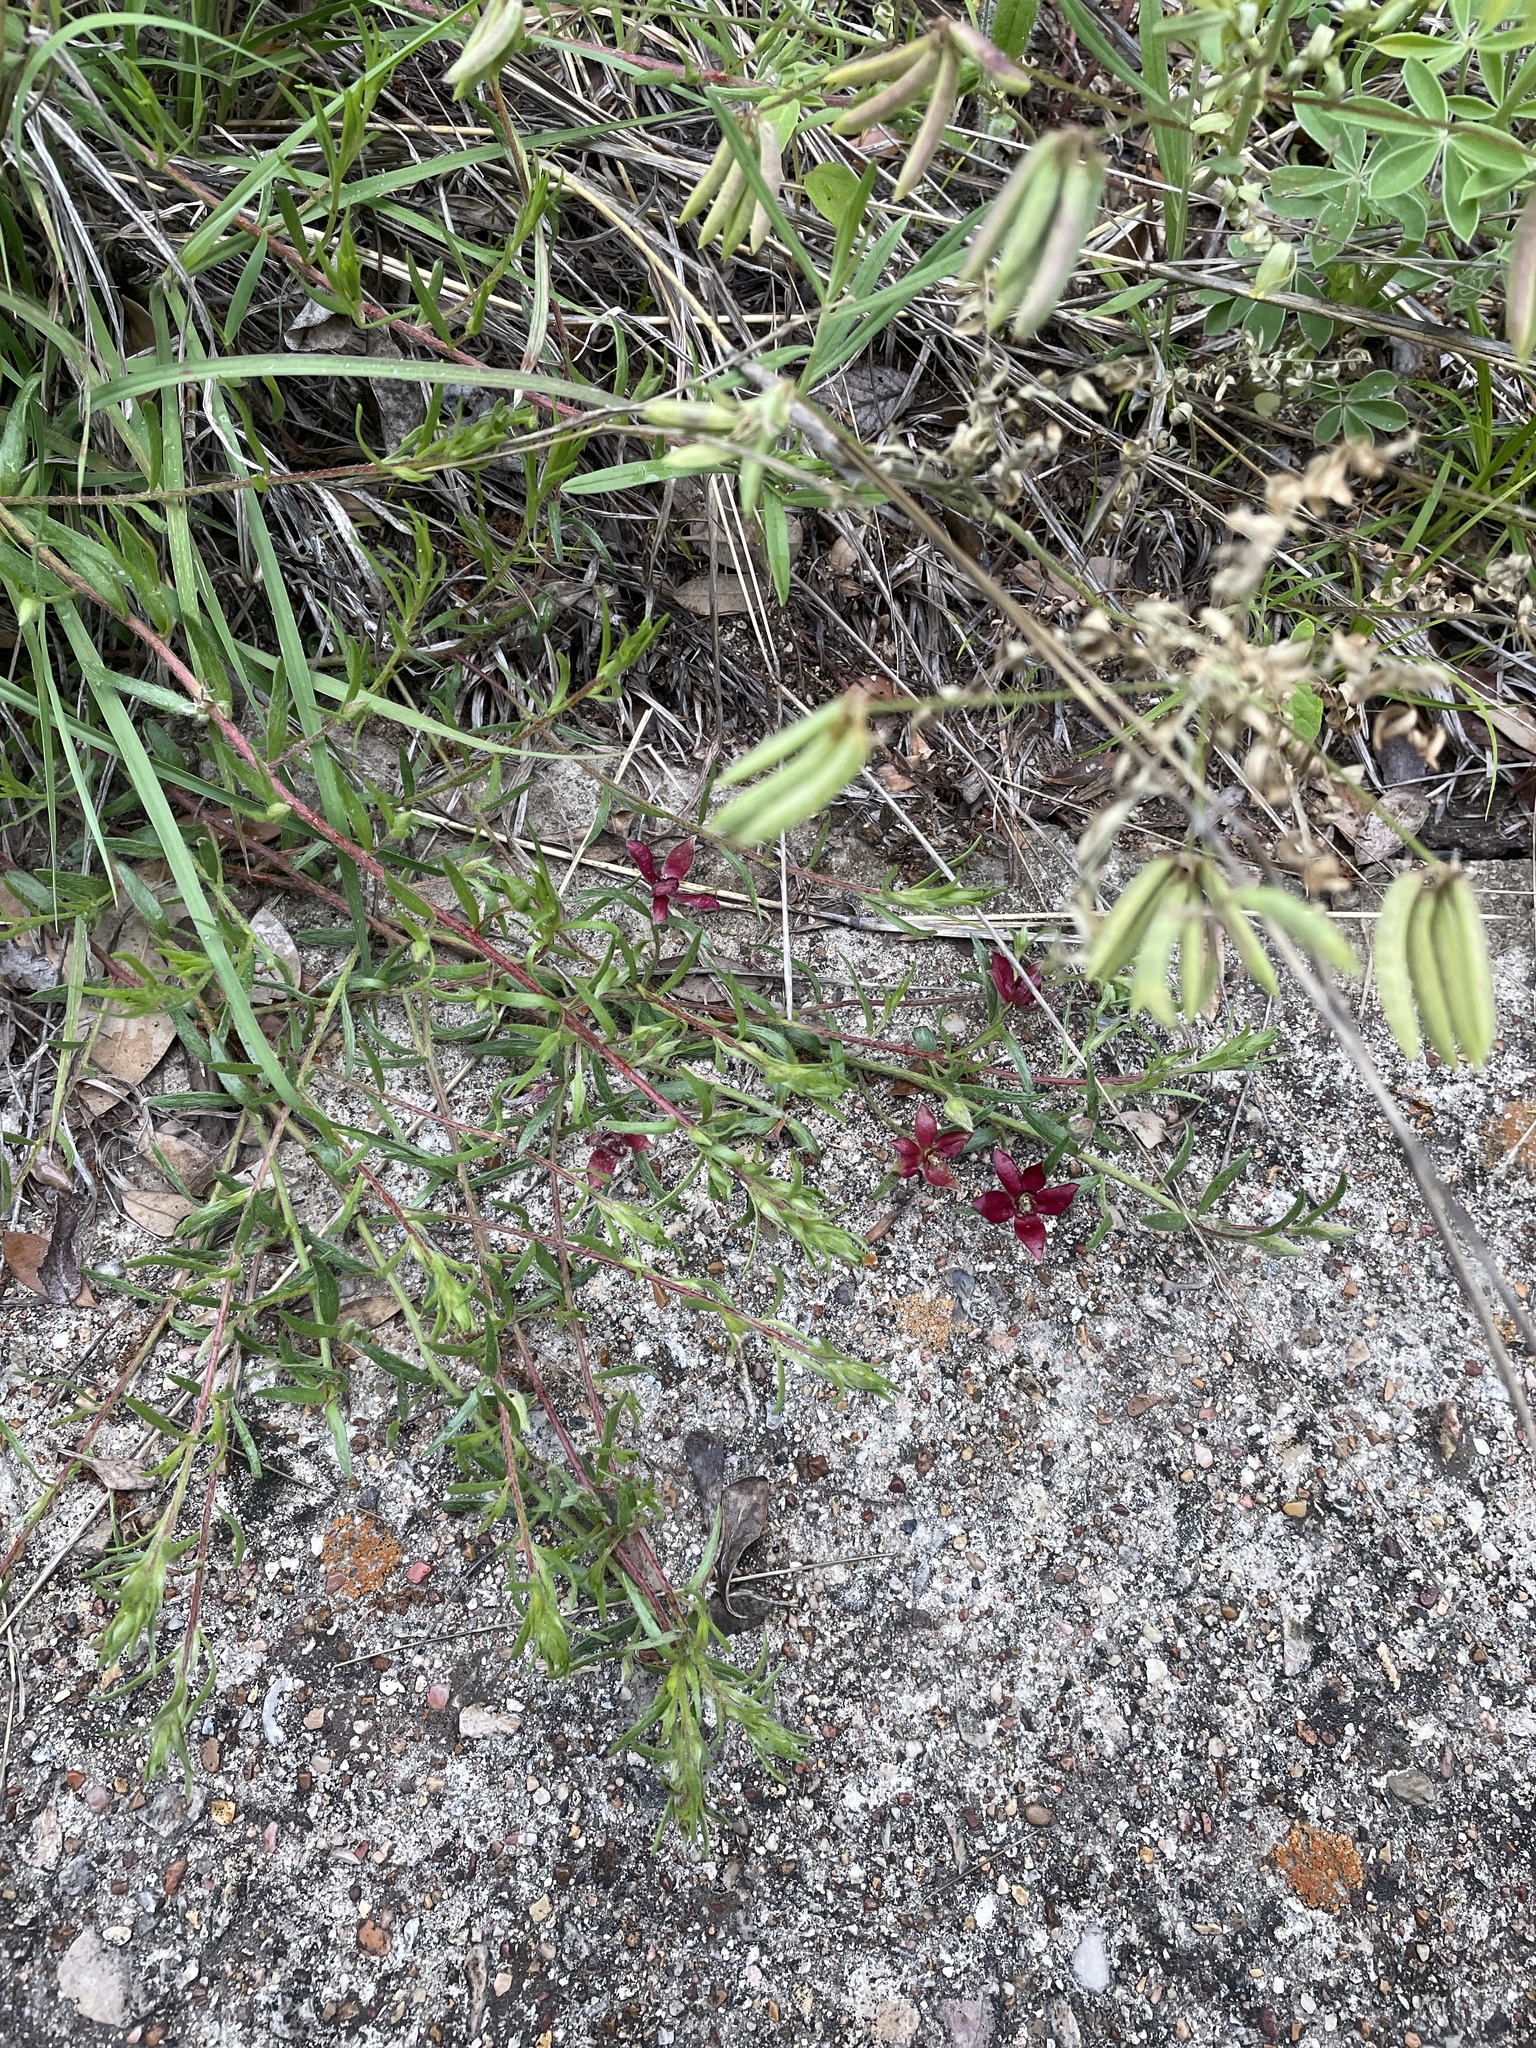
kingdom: Plantae
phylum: Tracheophyta
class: Magnoliopsida
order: Zygophyllales
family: Krameriaceae
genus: Krameria
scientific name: Krameria lanceolata
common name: Ratany
